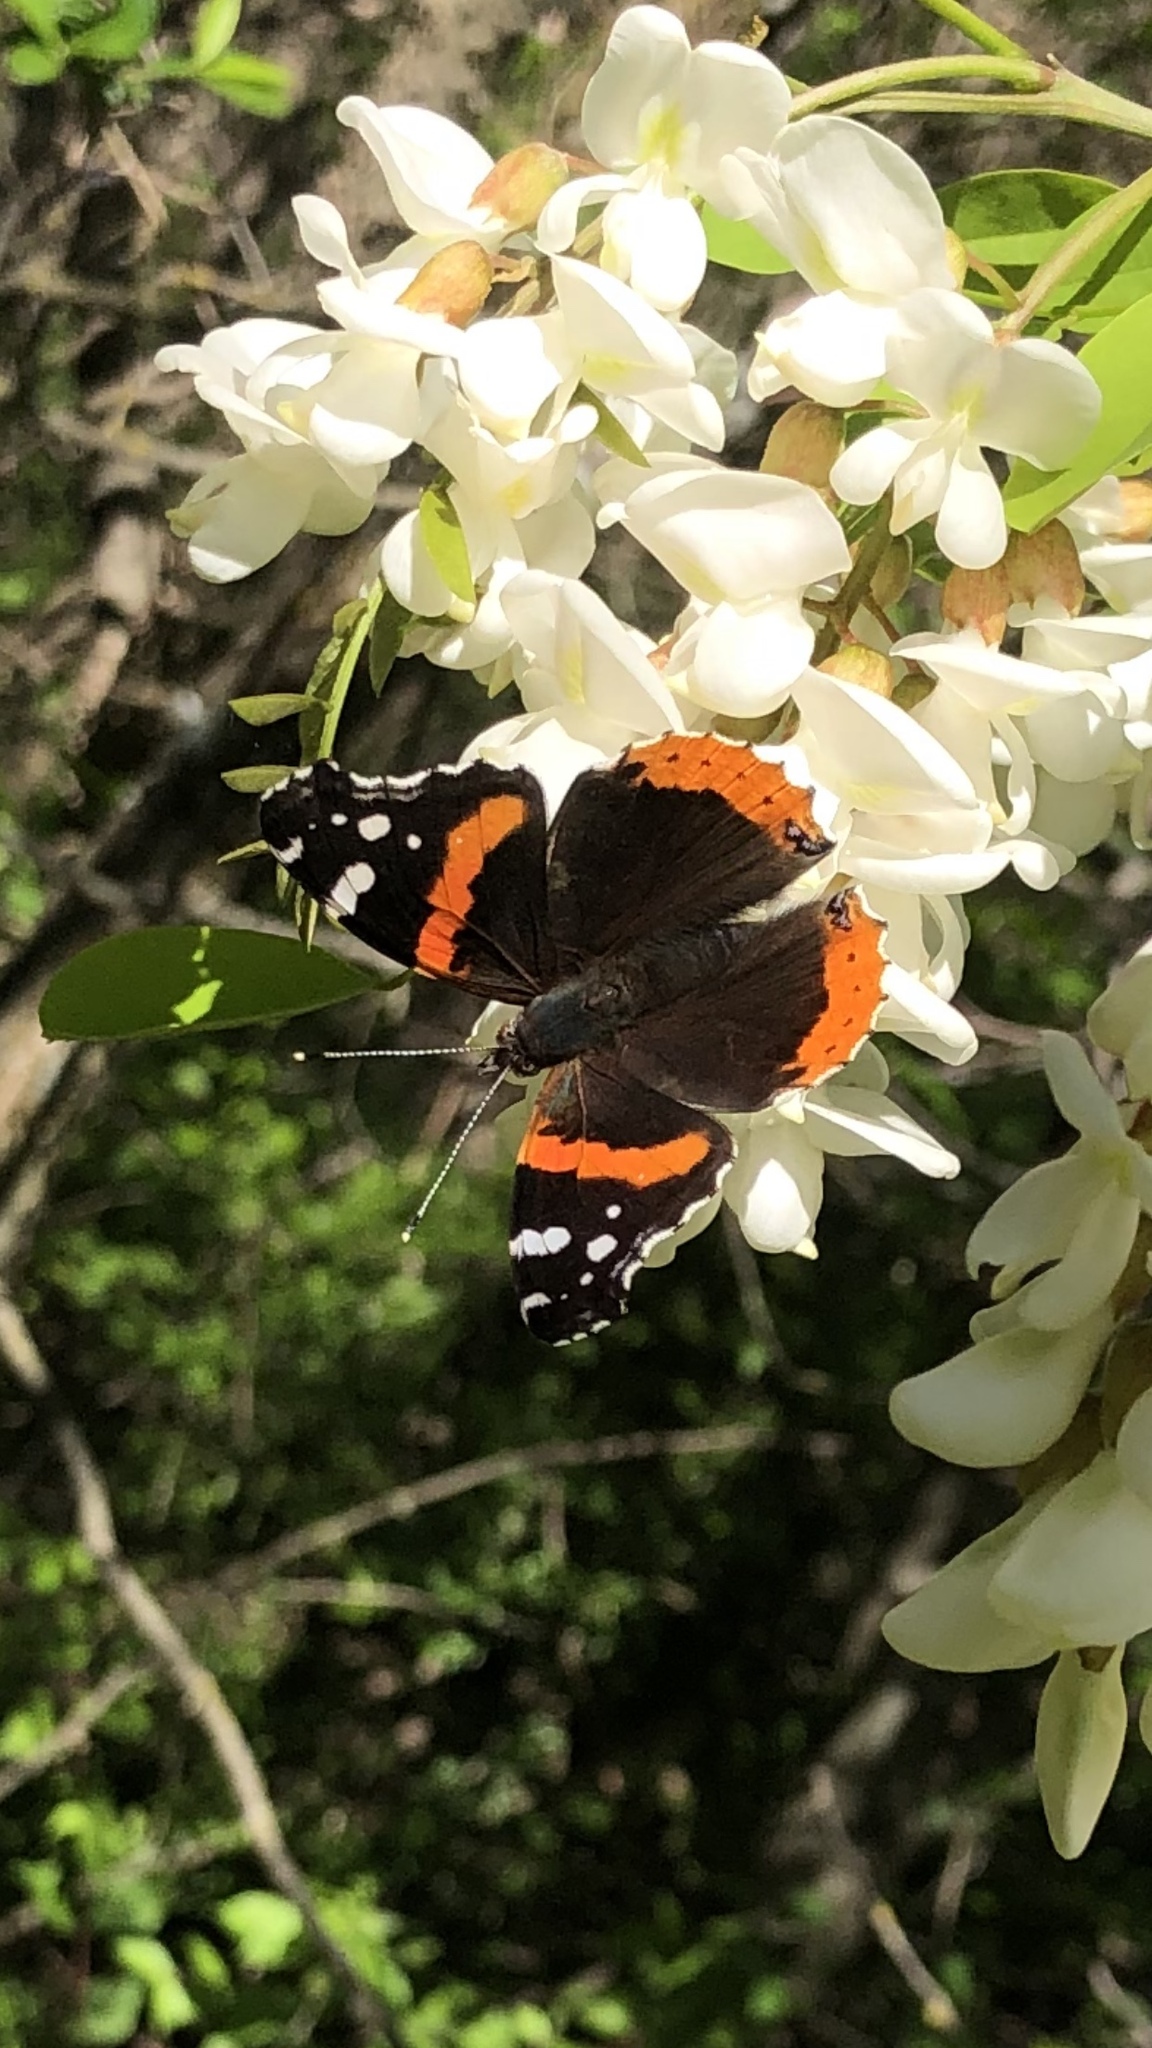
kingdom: Animalia
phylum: Arthropoda
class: Insecta
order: Lepidoptera
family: Nymphalidae
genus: Vanessa
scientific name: Vanessa atalanta
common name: Red admiral
